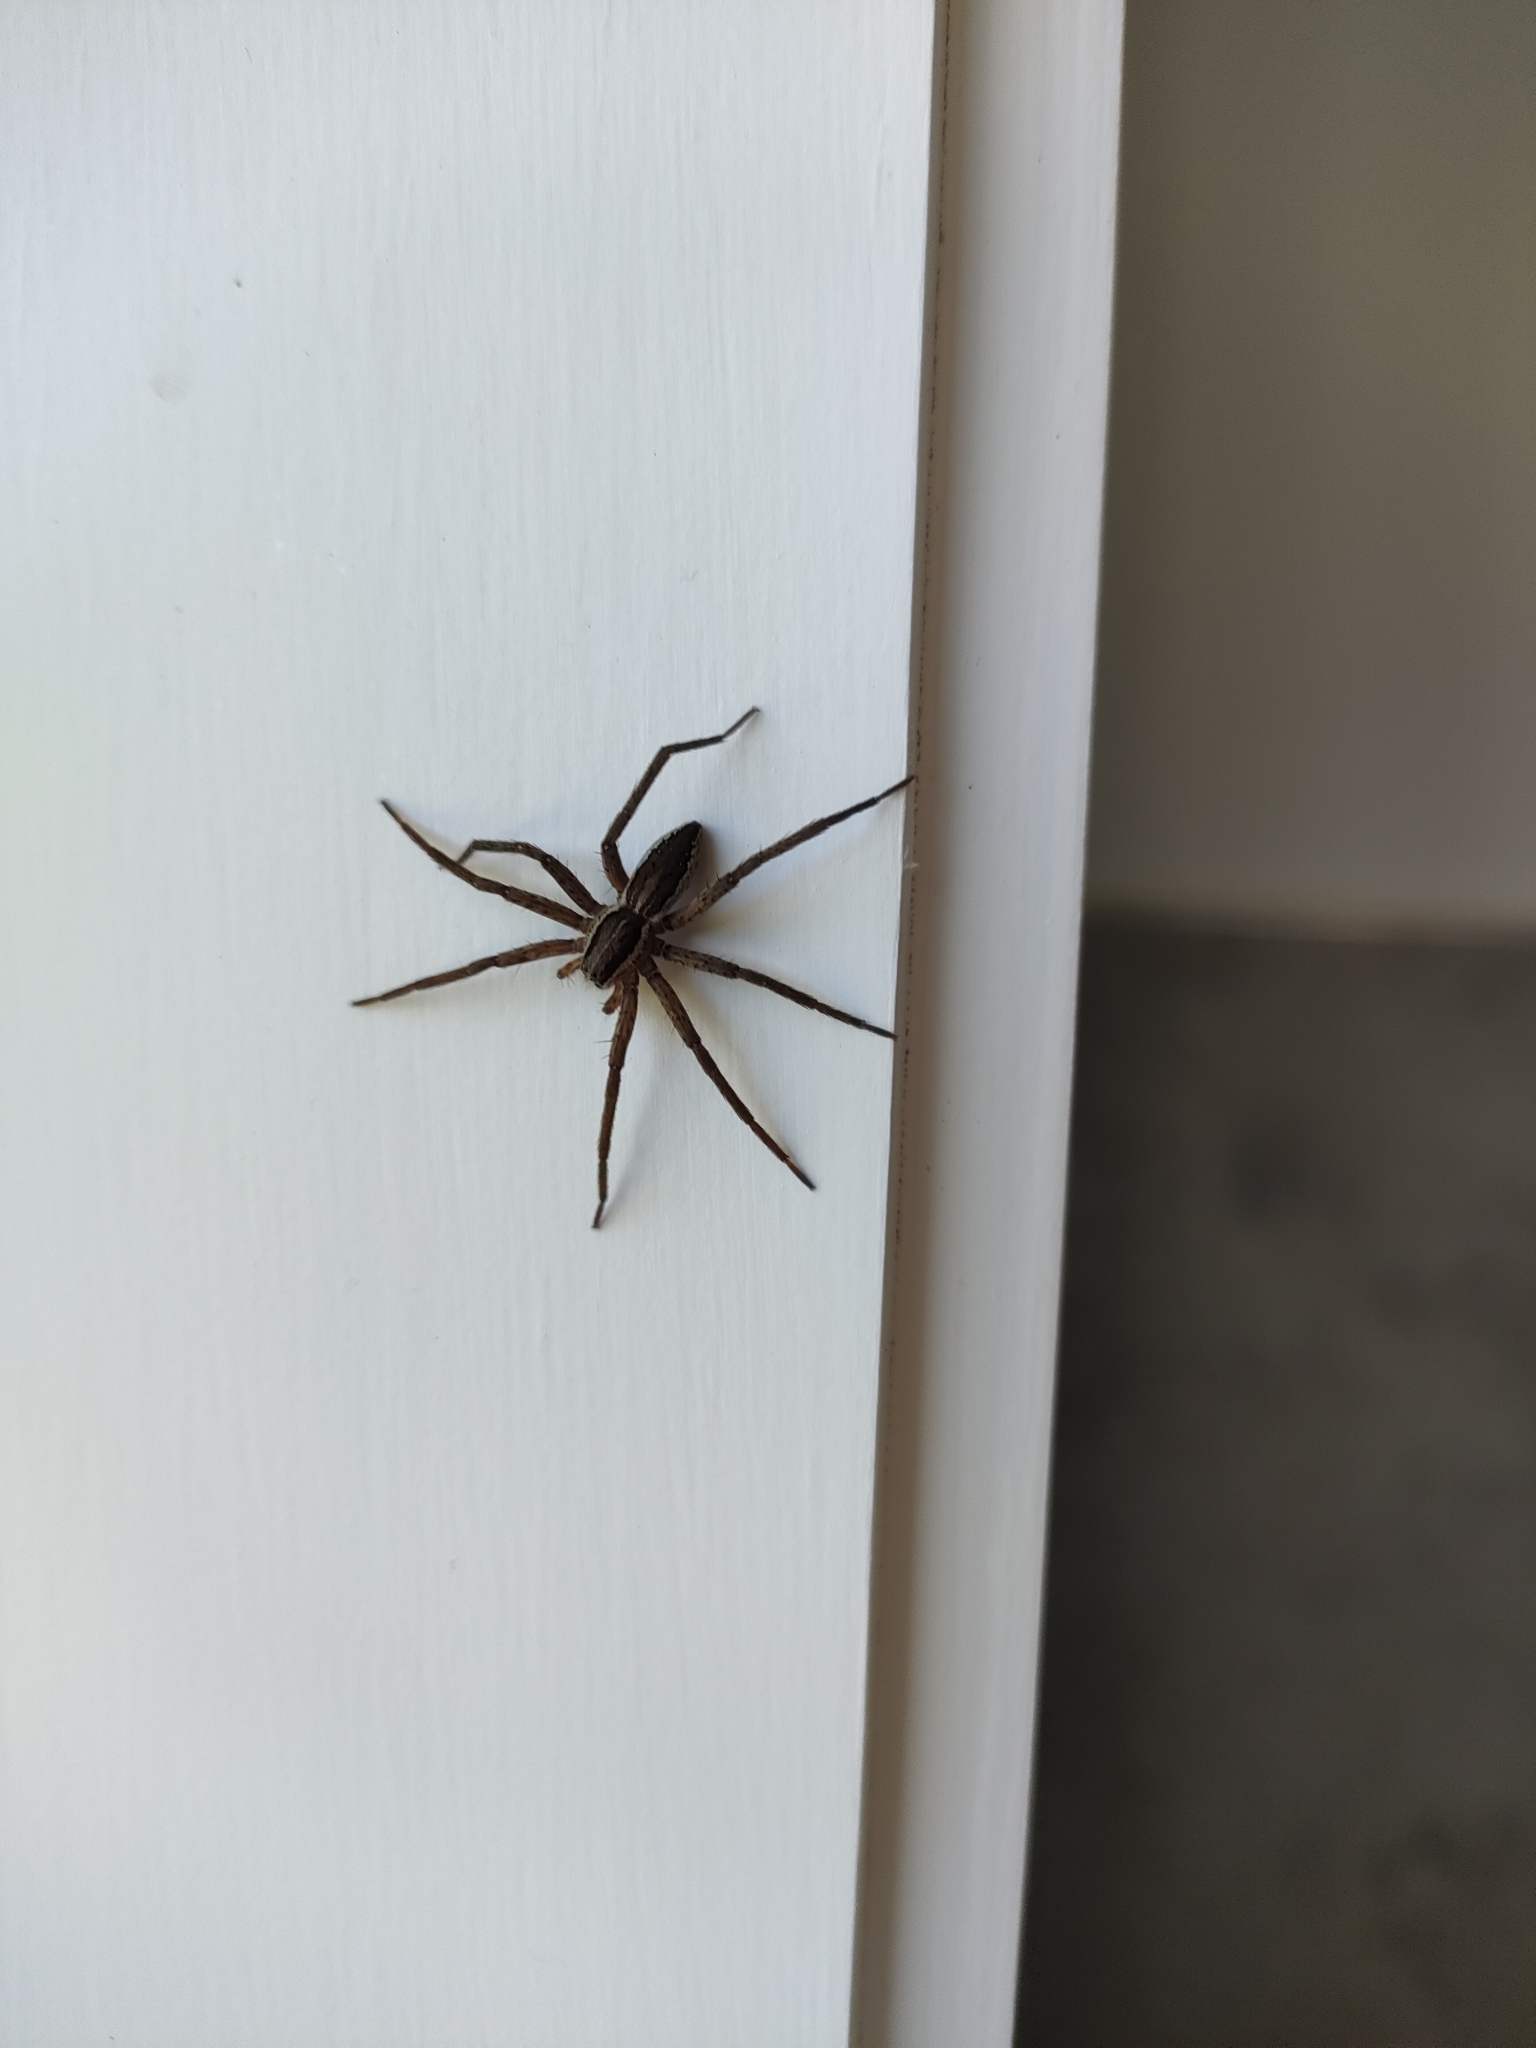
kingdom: Animalia
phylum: Arthropoda
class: Arachnida
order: Araneae
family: Pisauridae
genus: Dolomedes
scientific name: Dolomedes minor
